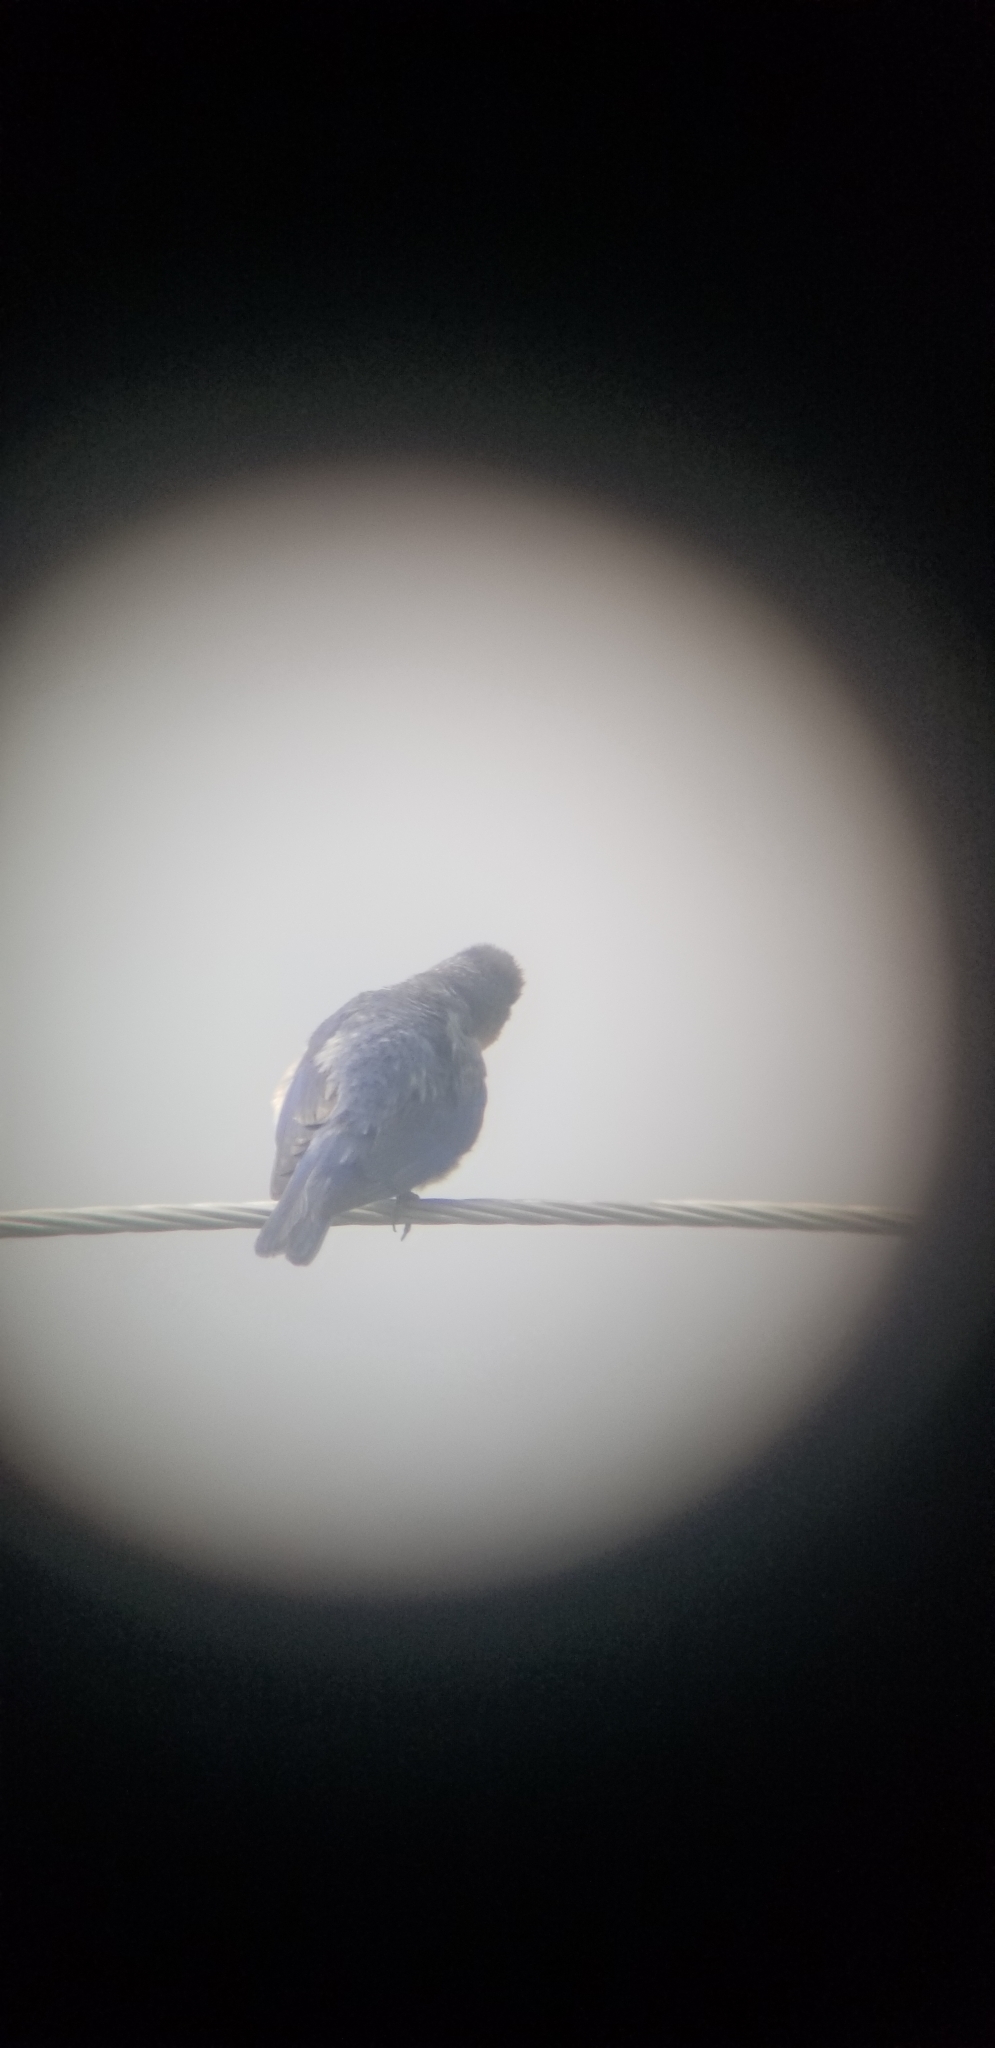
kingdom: Animalia
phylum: Chordata
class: Aves
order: Passeriformes
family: Turdidae
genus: Sialia
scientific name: Sialia sialis
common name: Eastern bluebird
